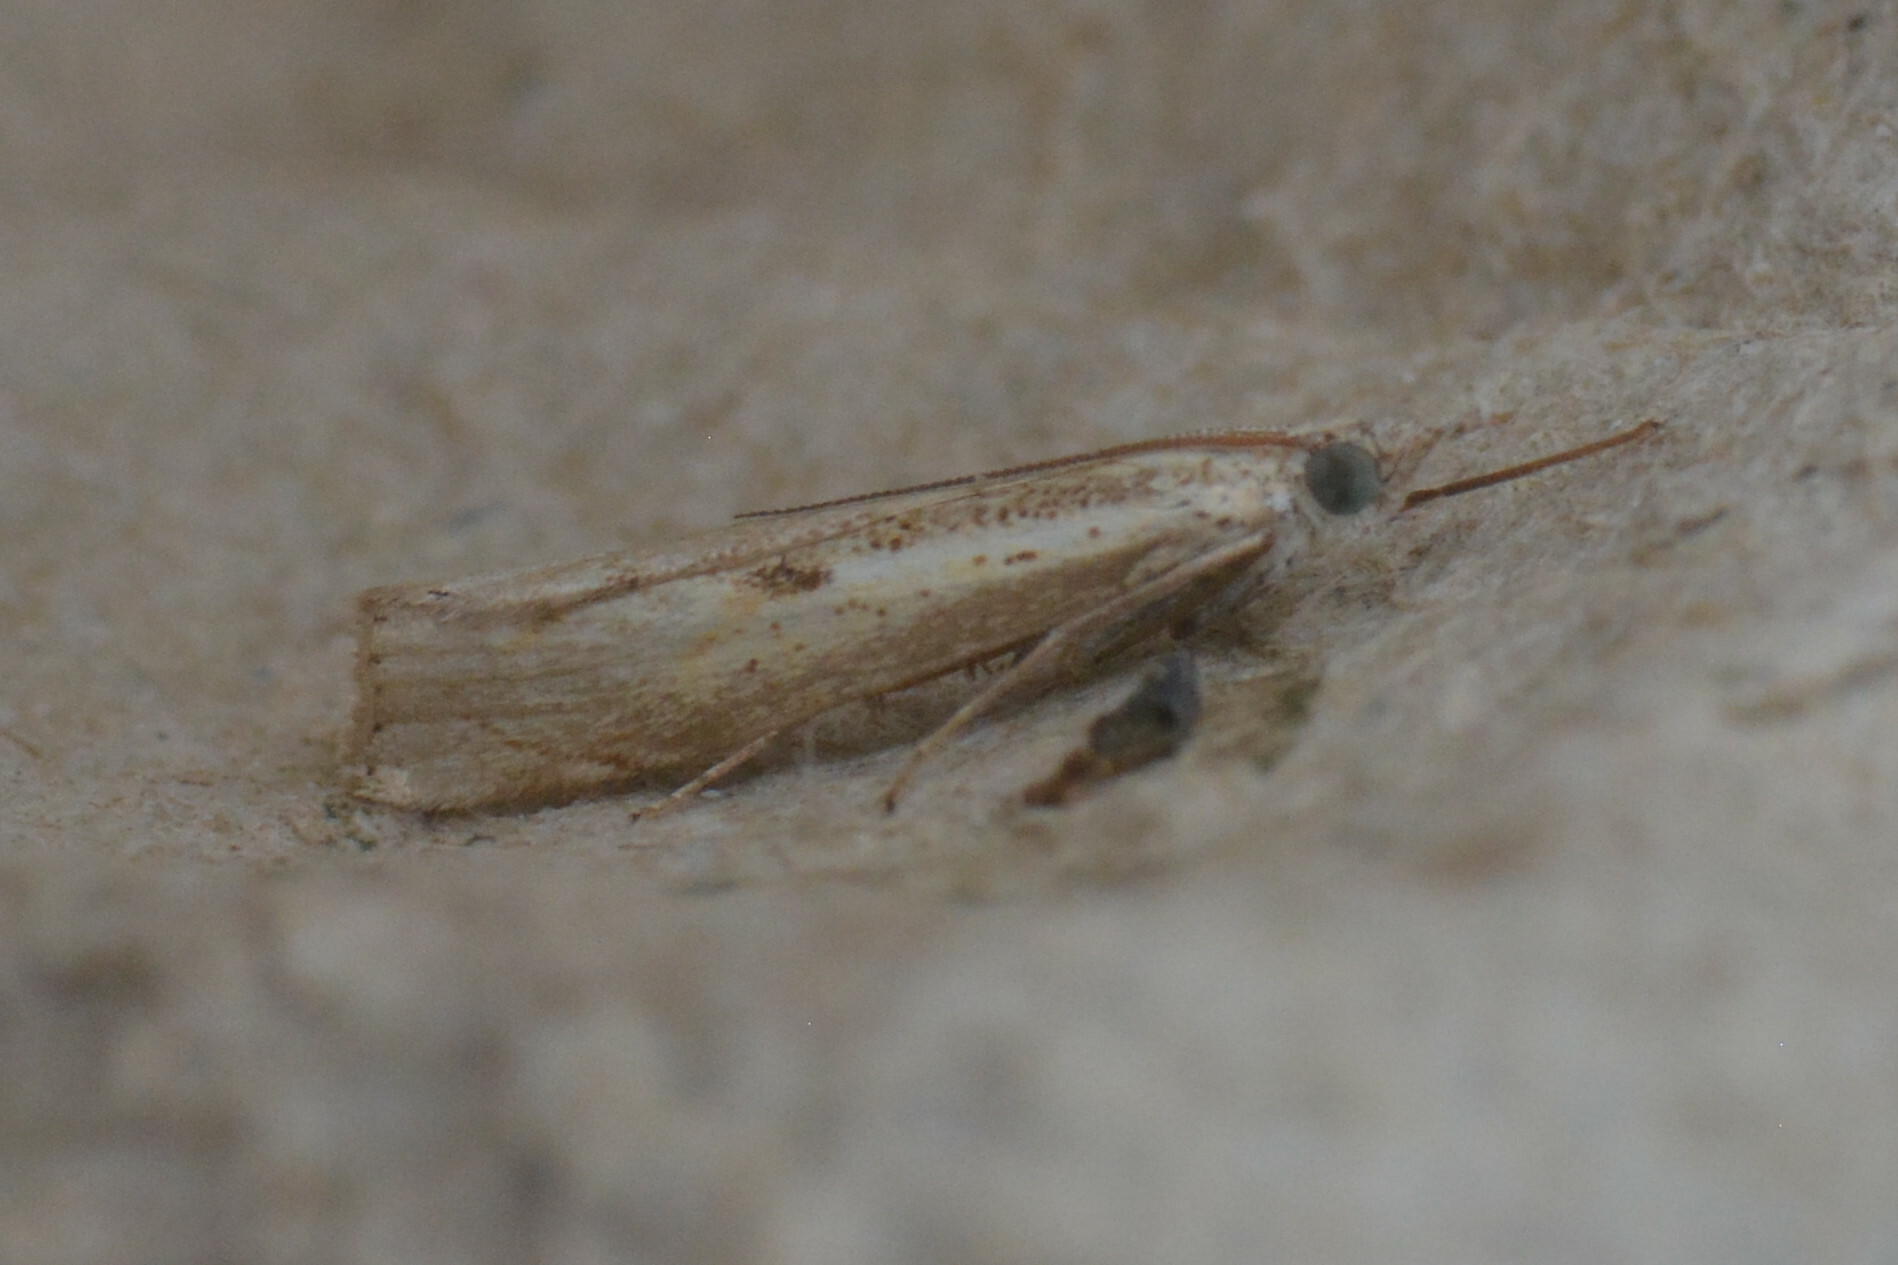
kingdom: Animalia
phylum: Arthropoda
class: Insecta
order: Lepidoptera
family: Crambidae
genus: Agriphila
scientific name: Agriphila inquinatella
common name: Barred grass-veneer
